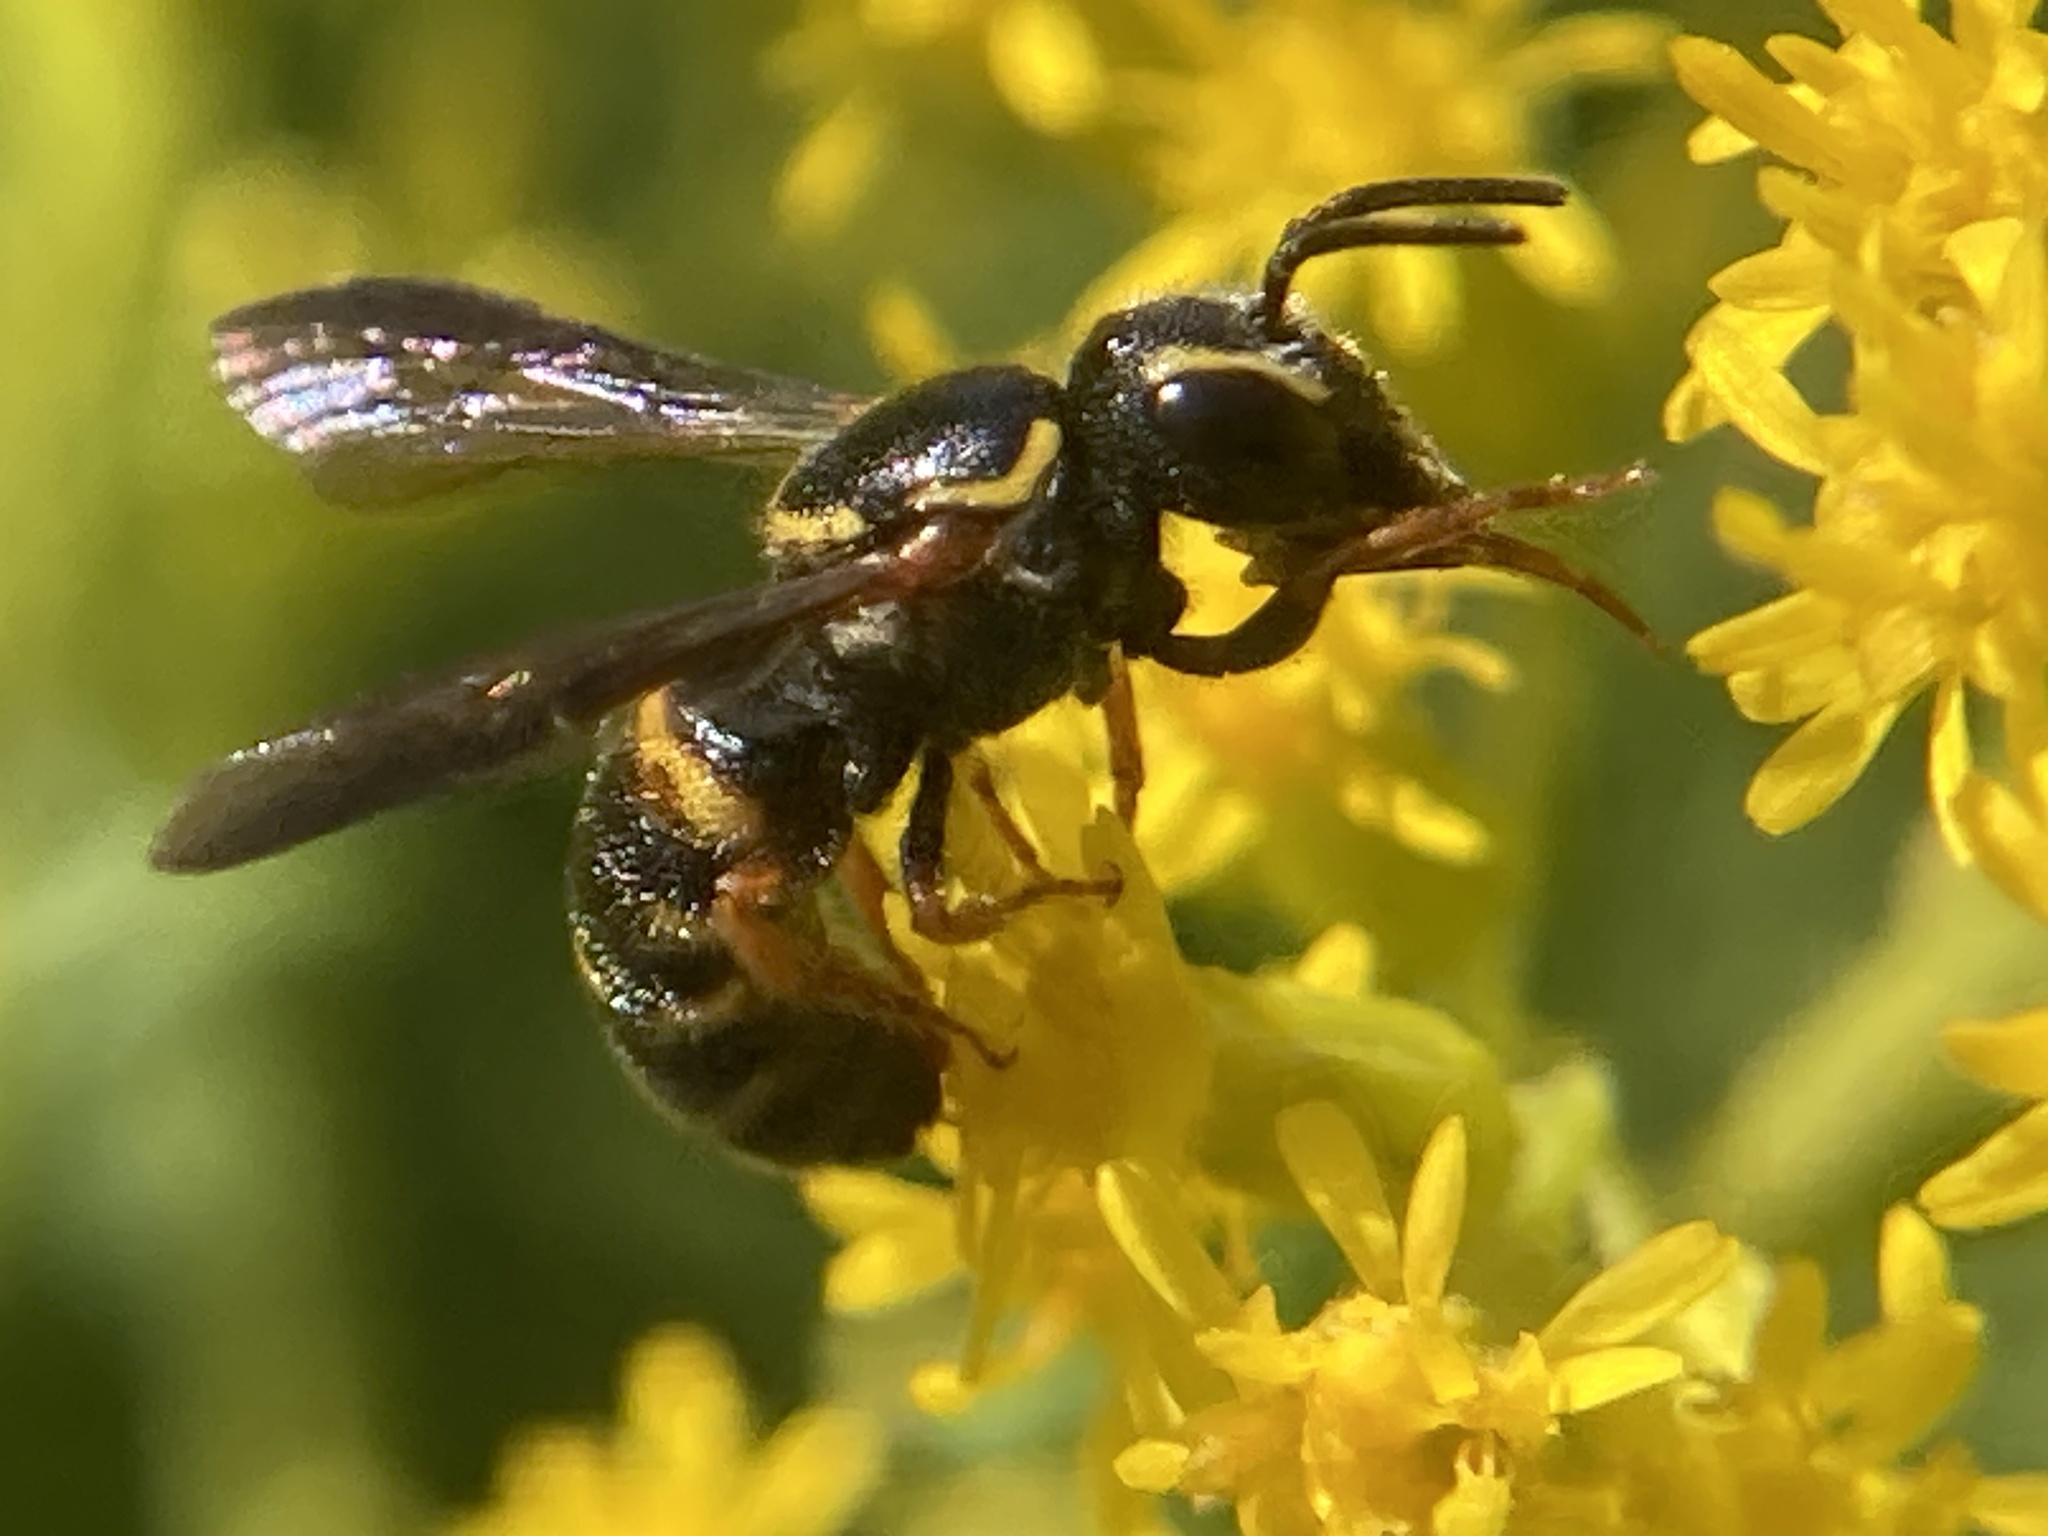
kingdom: Animalia
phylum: Arthropoda
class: Insecta
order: Hymenoptera
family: Megachilidae
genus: Stelis
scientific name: Stelis louisae
